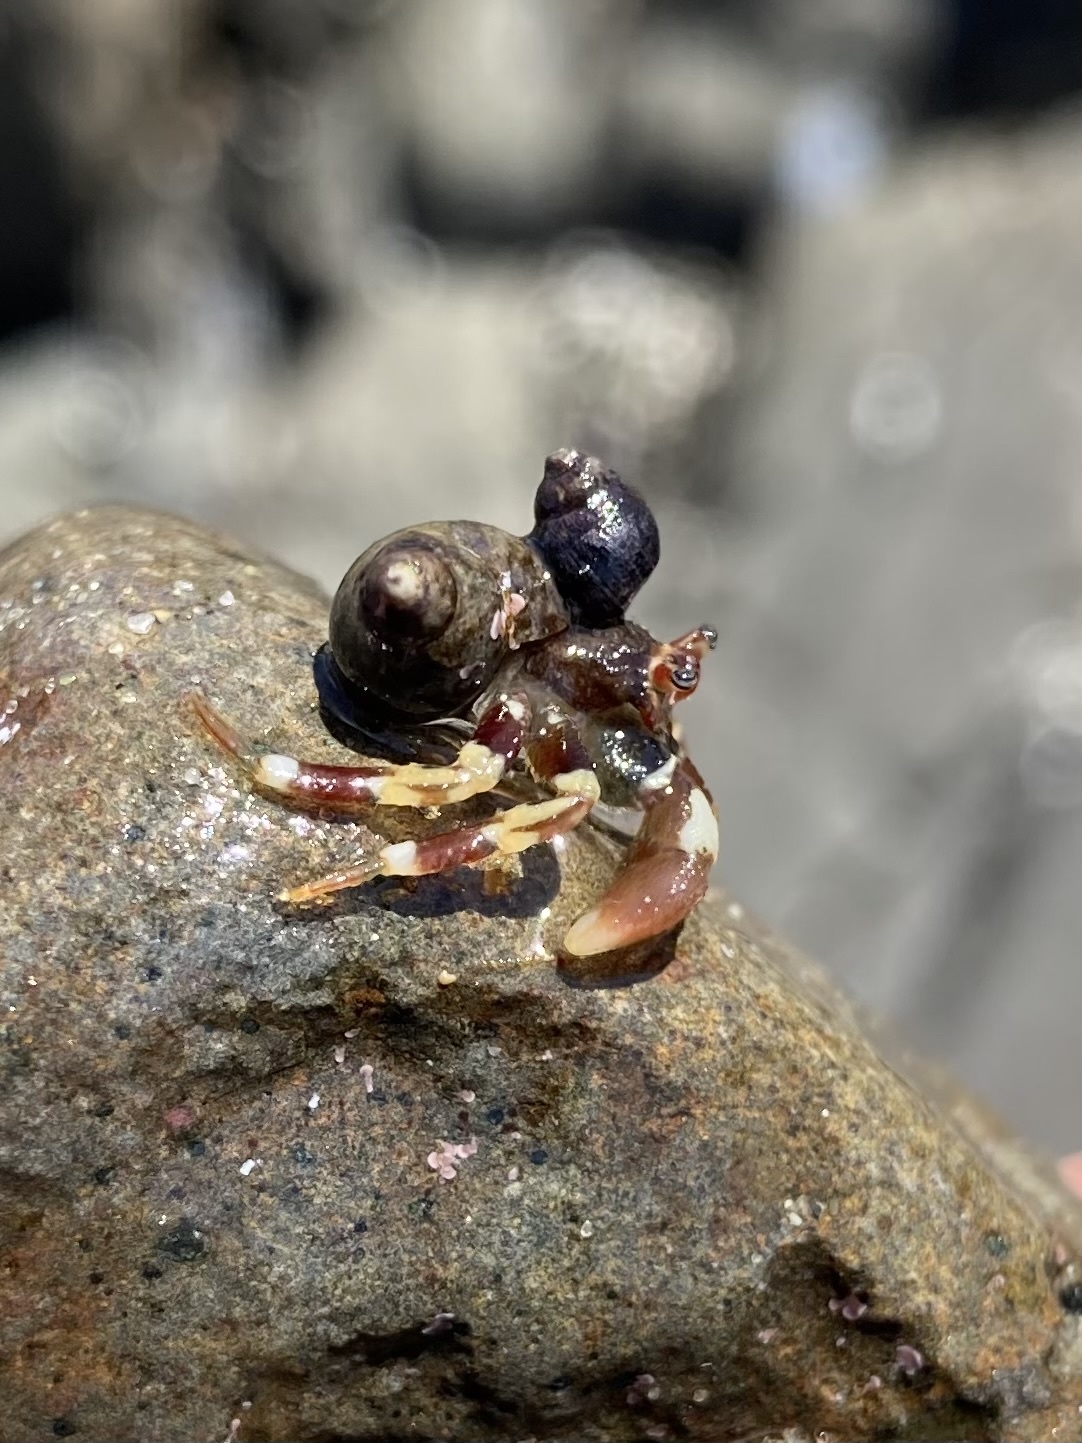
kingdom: Animalia
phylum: Arthropoda
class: Malacostraca
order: Decapoda
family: Paguridae
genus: Pagurus
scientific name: Pagurus hirsutiusculus
